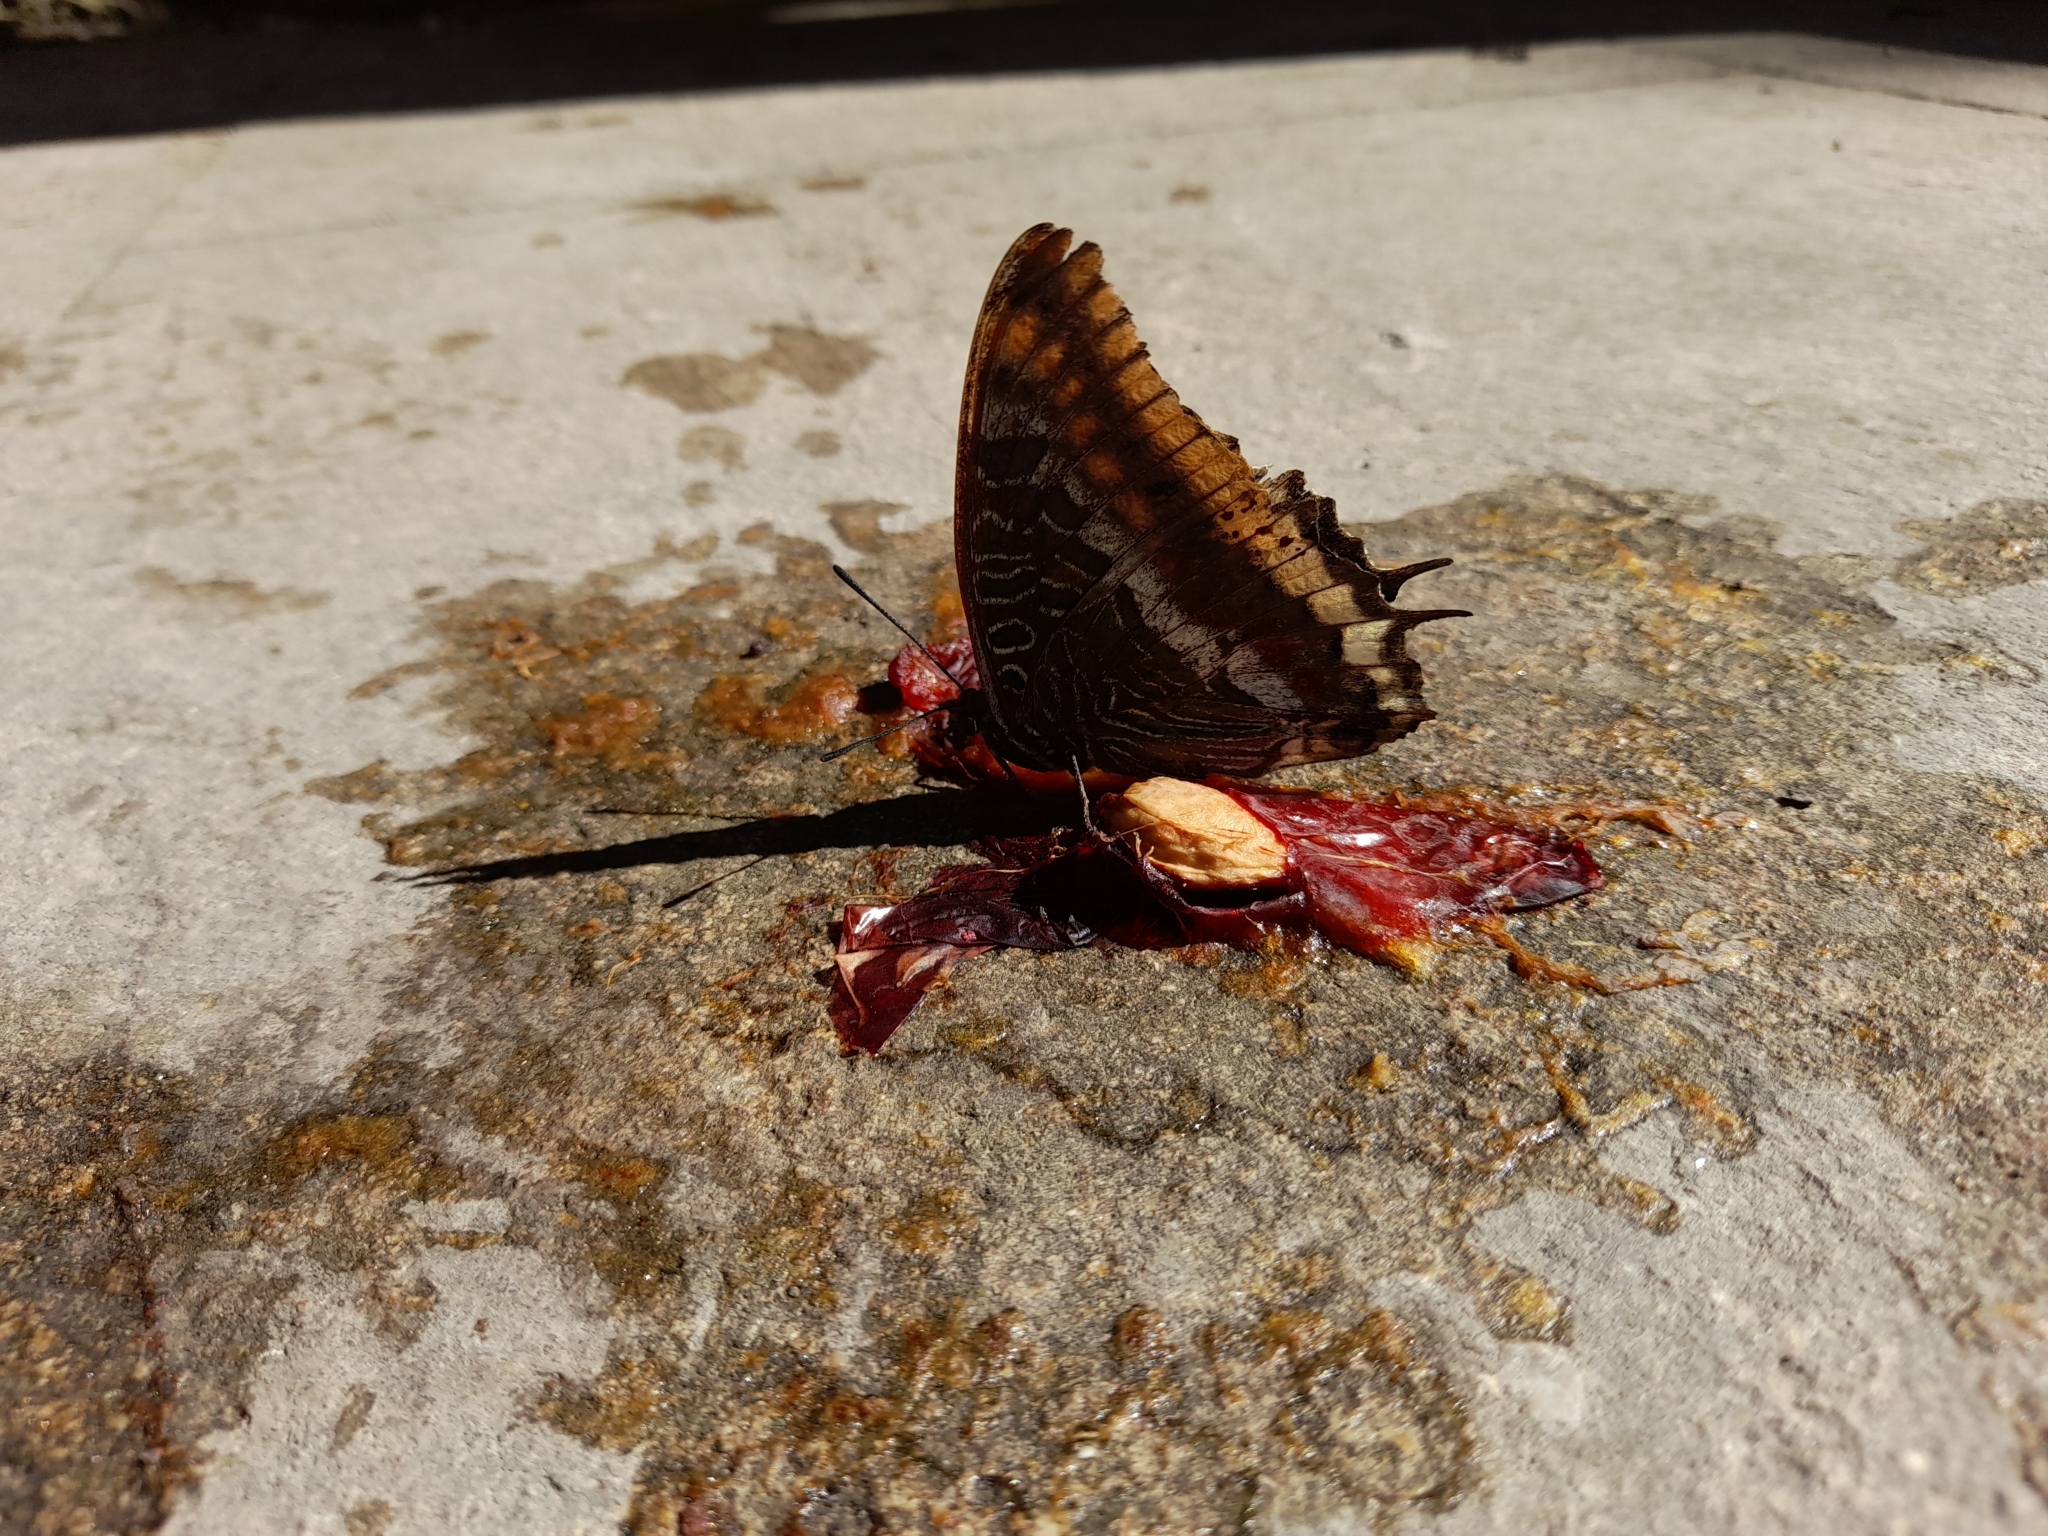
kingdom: Animalia
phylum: Arthropoda
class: Insecta
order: Lepidoptera
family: Nymphalidae
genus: Charaxes
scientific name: Charaxes jasius
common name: Two tailed pasha
